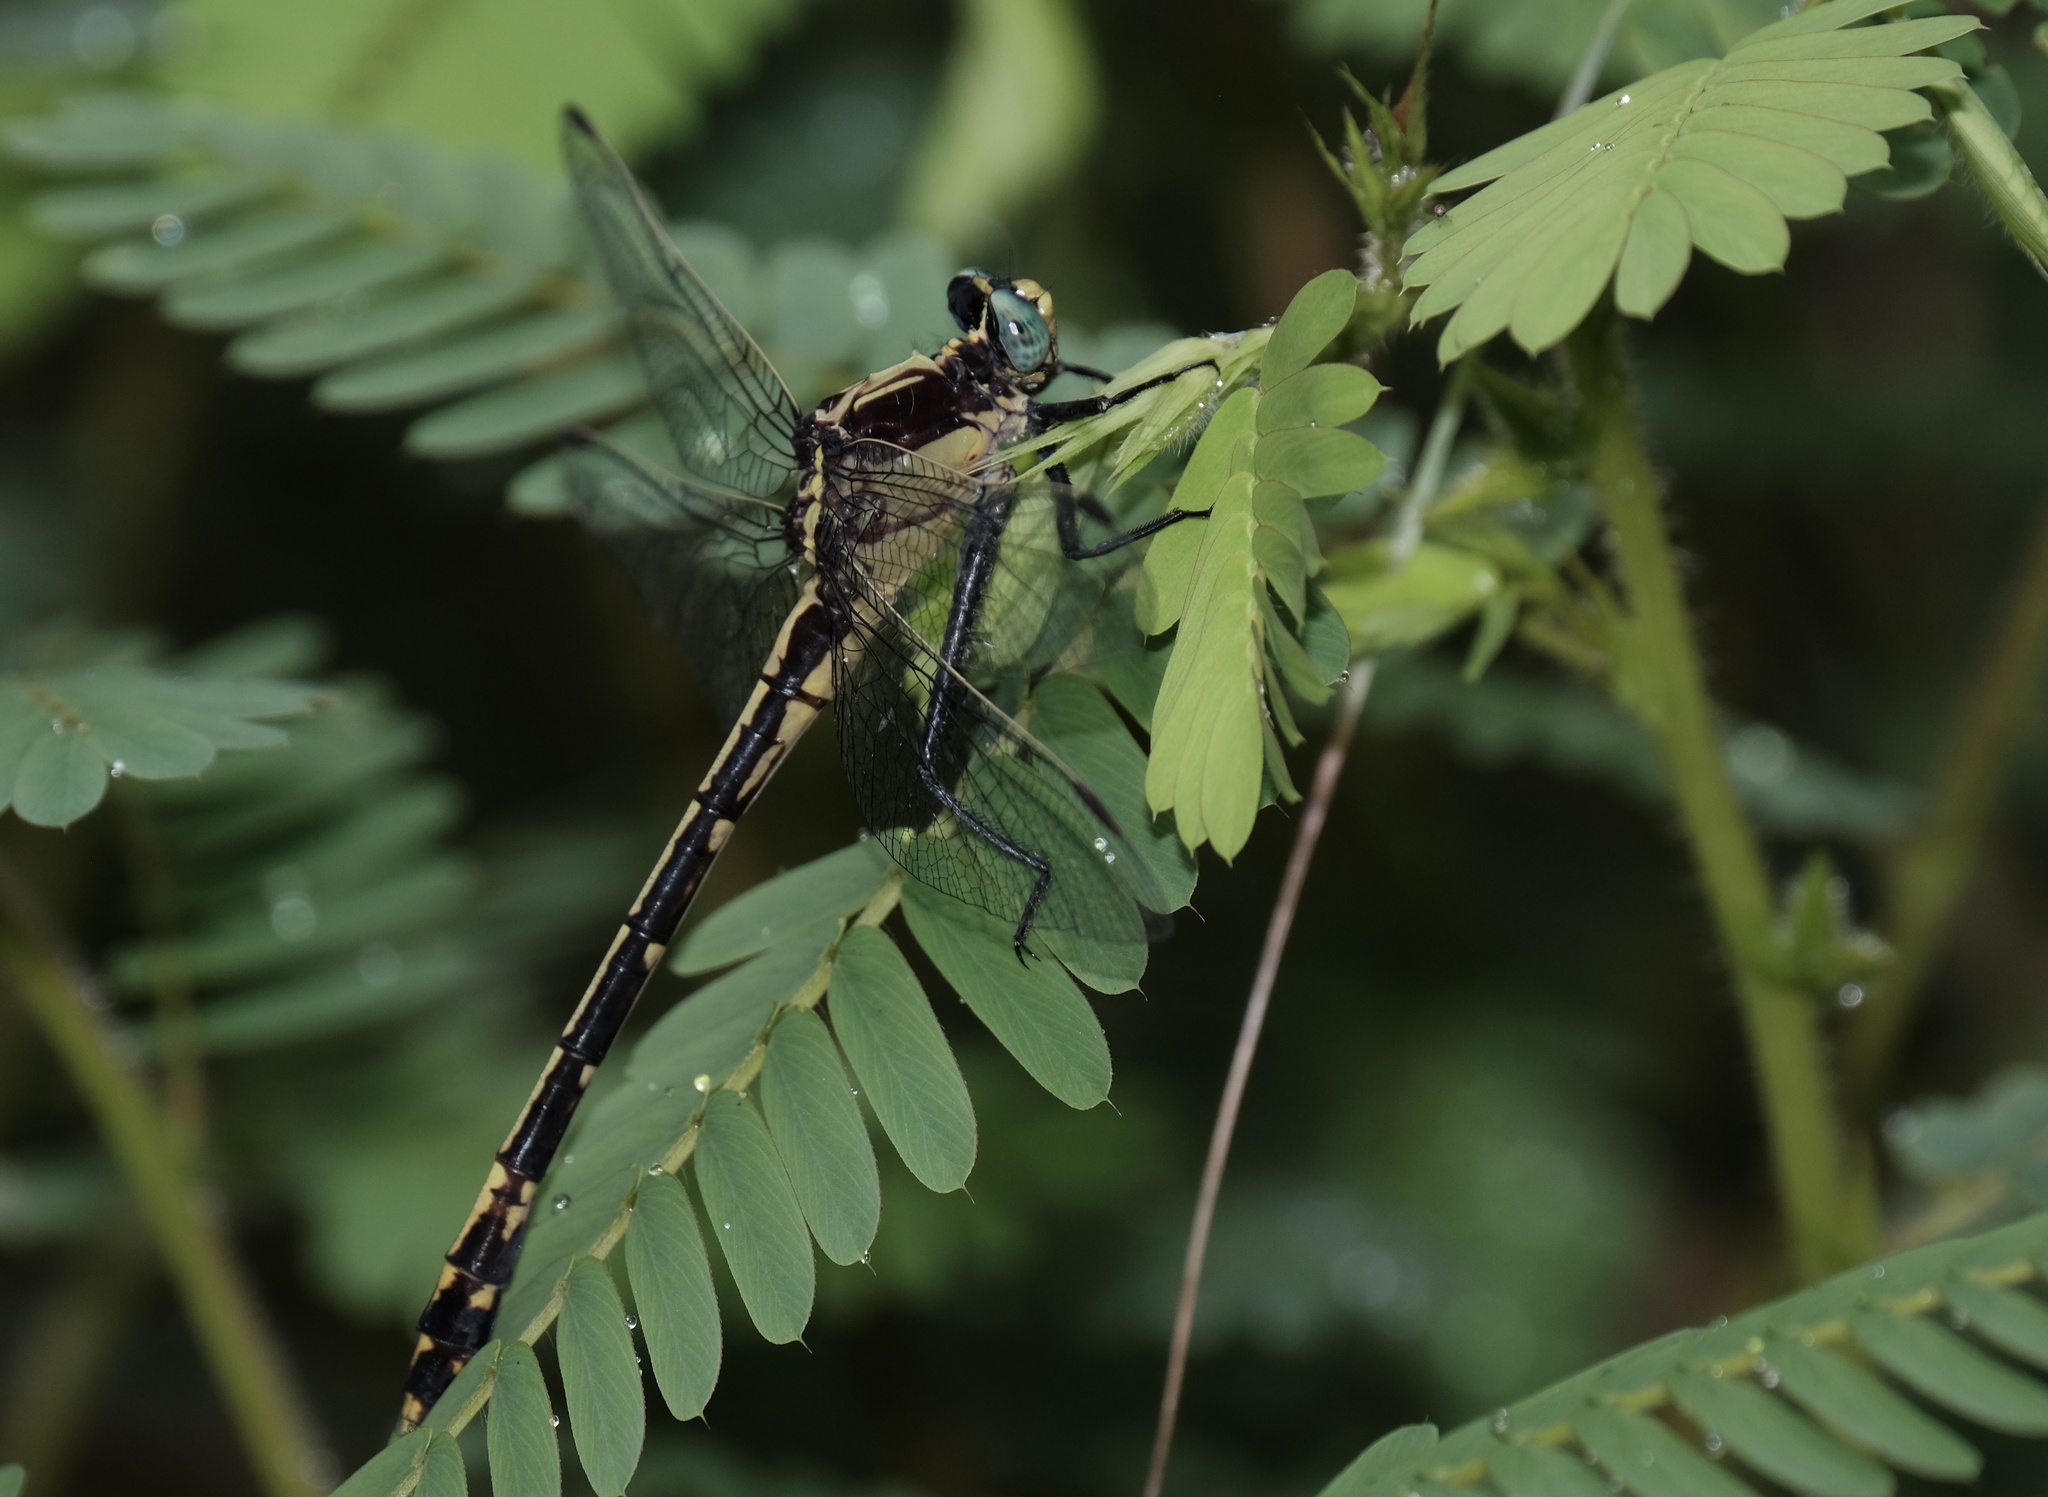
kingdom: Animalia
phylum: Arthropoda
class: Insecta
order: Odonata
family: Gomphidae
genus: Dromogomphus
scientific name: Dromogomphus spinosus
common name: Black-shouldered spinyleg
